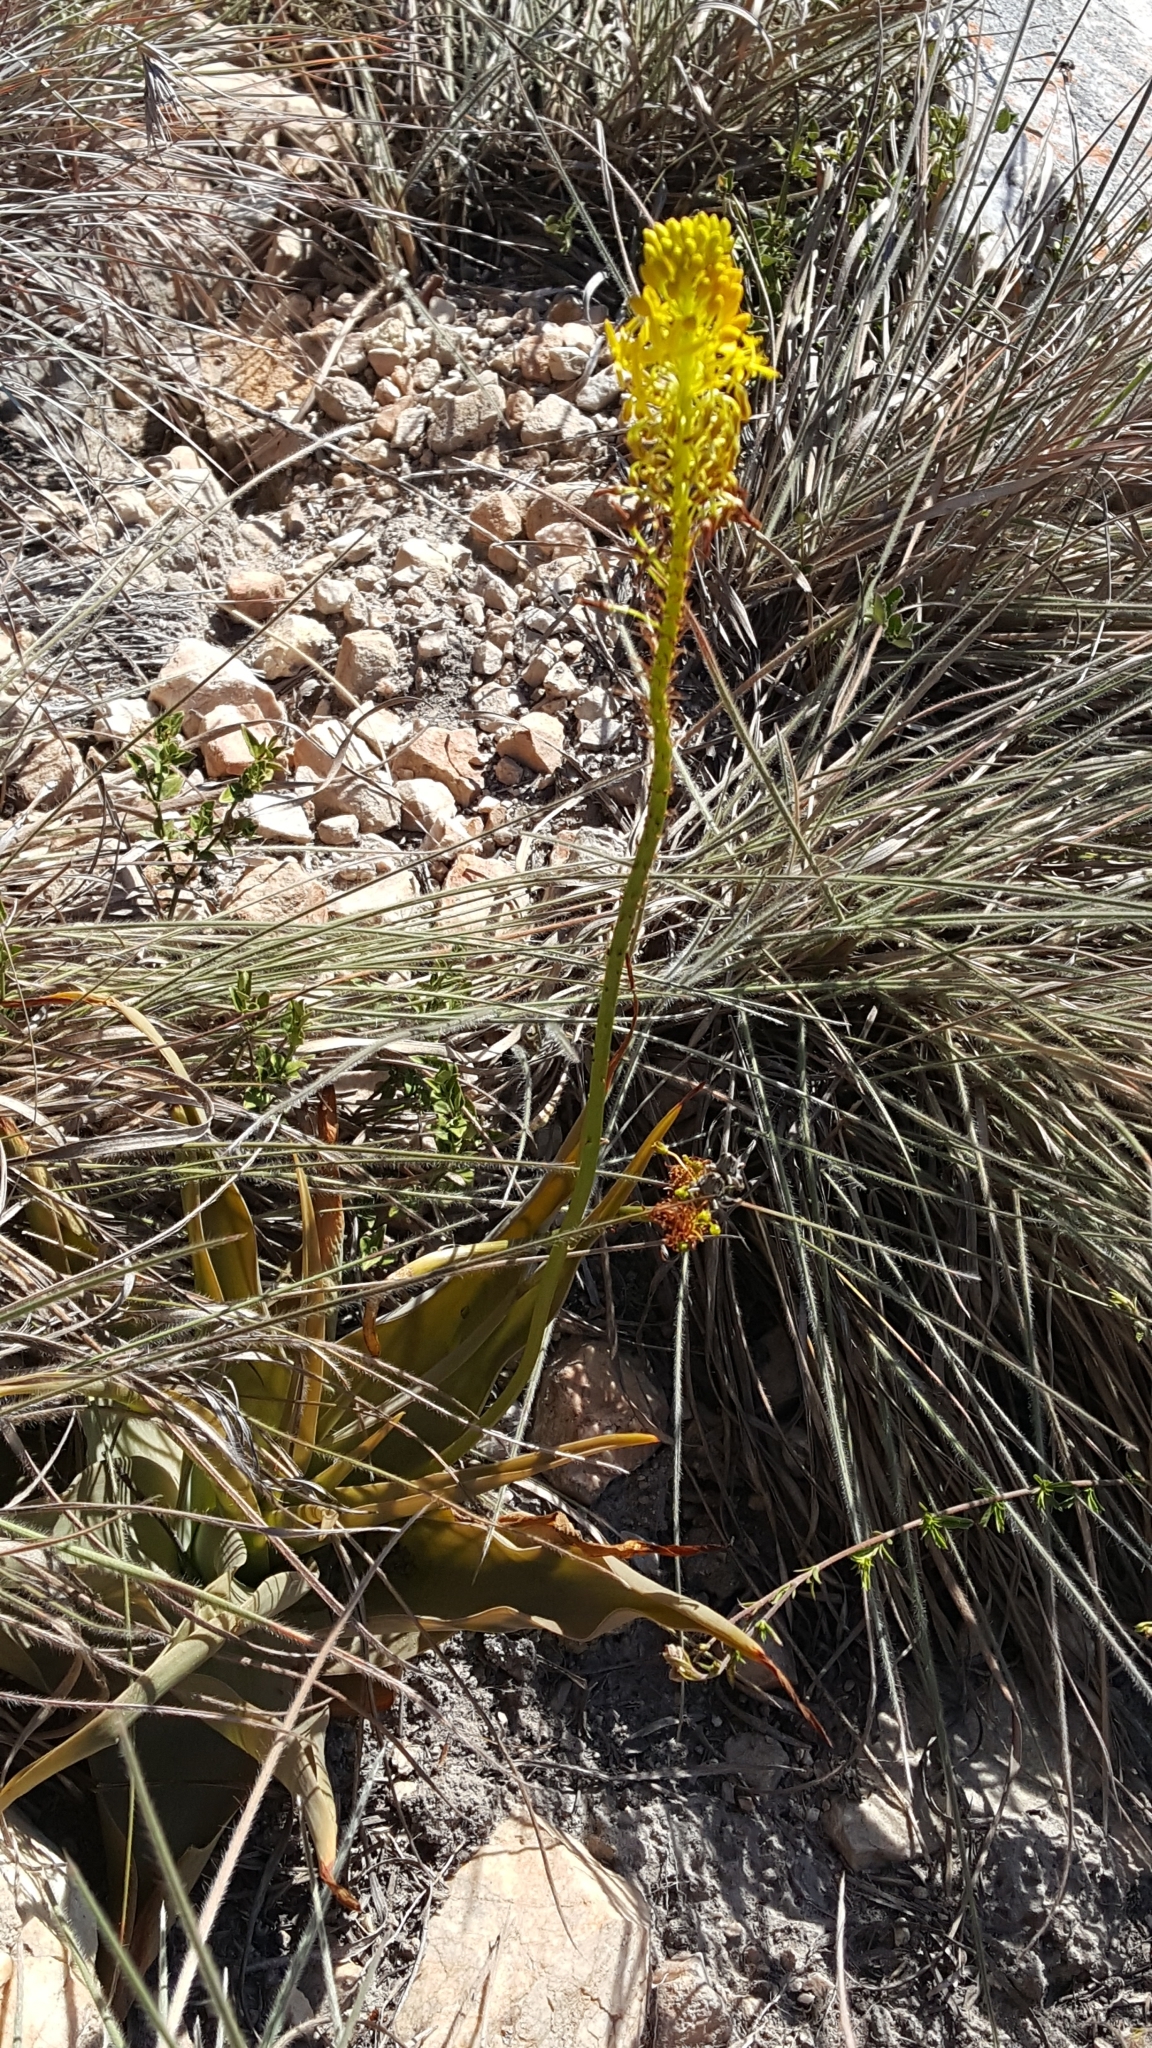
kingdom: Plantae
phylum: Tracheophyta
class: Liliopsida
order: Asparagales
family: Asphodelaceae
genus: Bulbine
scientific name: Bulbine latifolia
